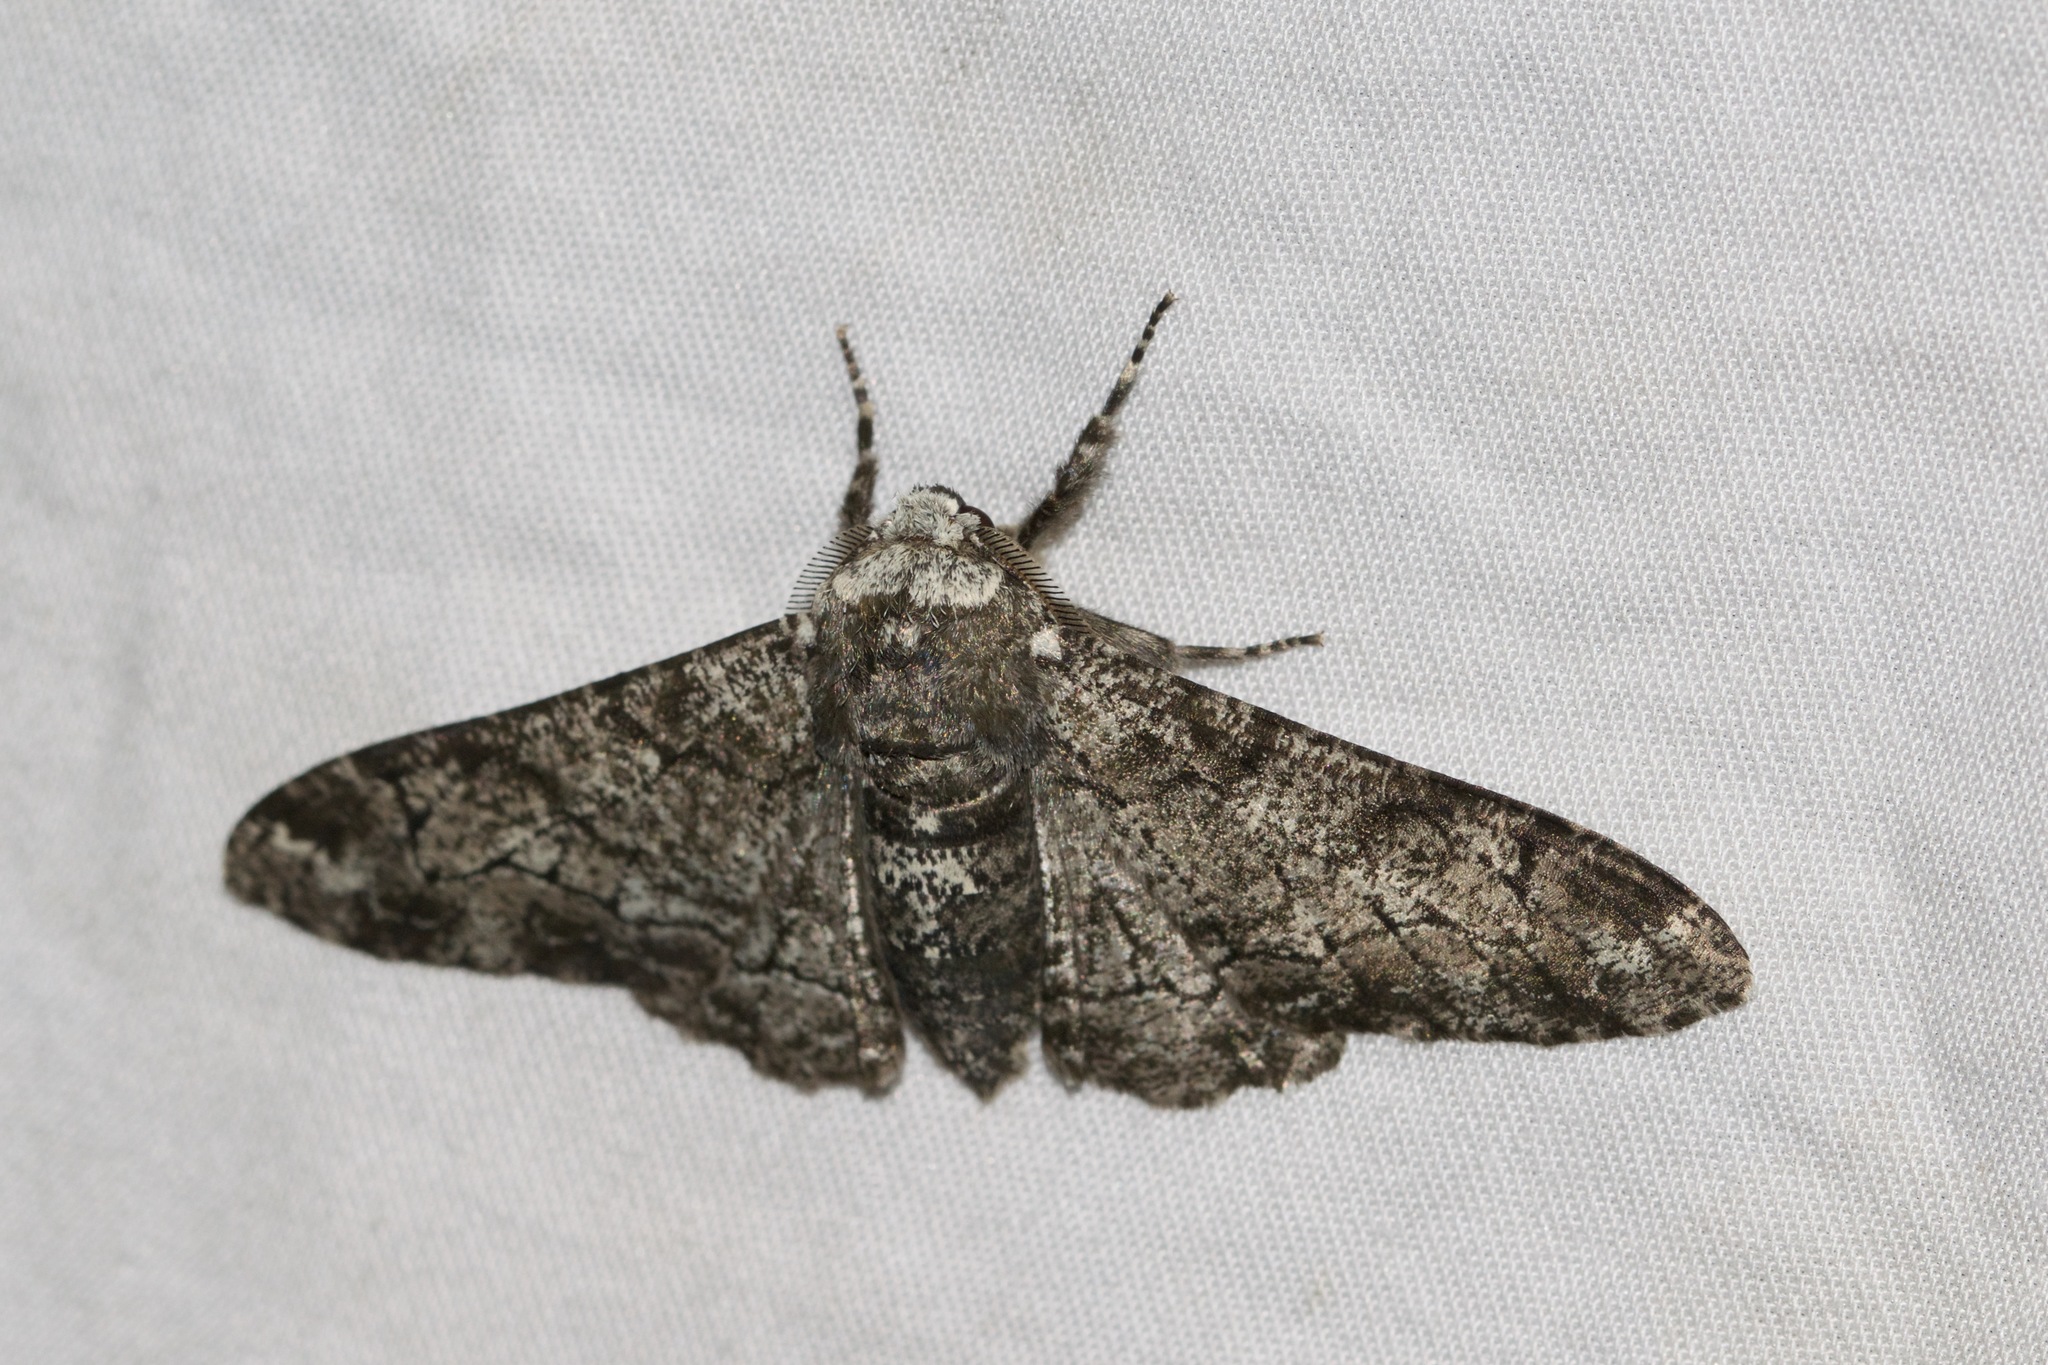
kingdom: Animalia
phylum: Arthropoda
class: Insecta
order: Lepidoptera
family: Geometridae
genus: Biston
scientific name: Biston betularia
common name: Peppered moth
